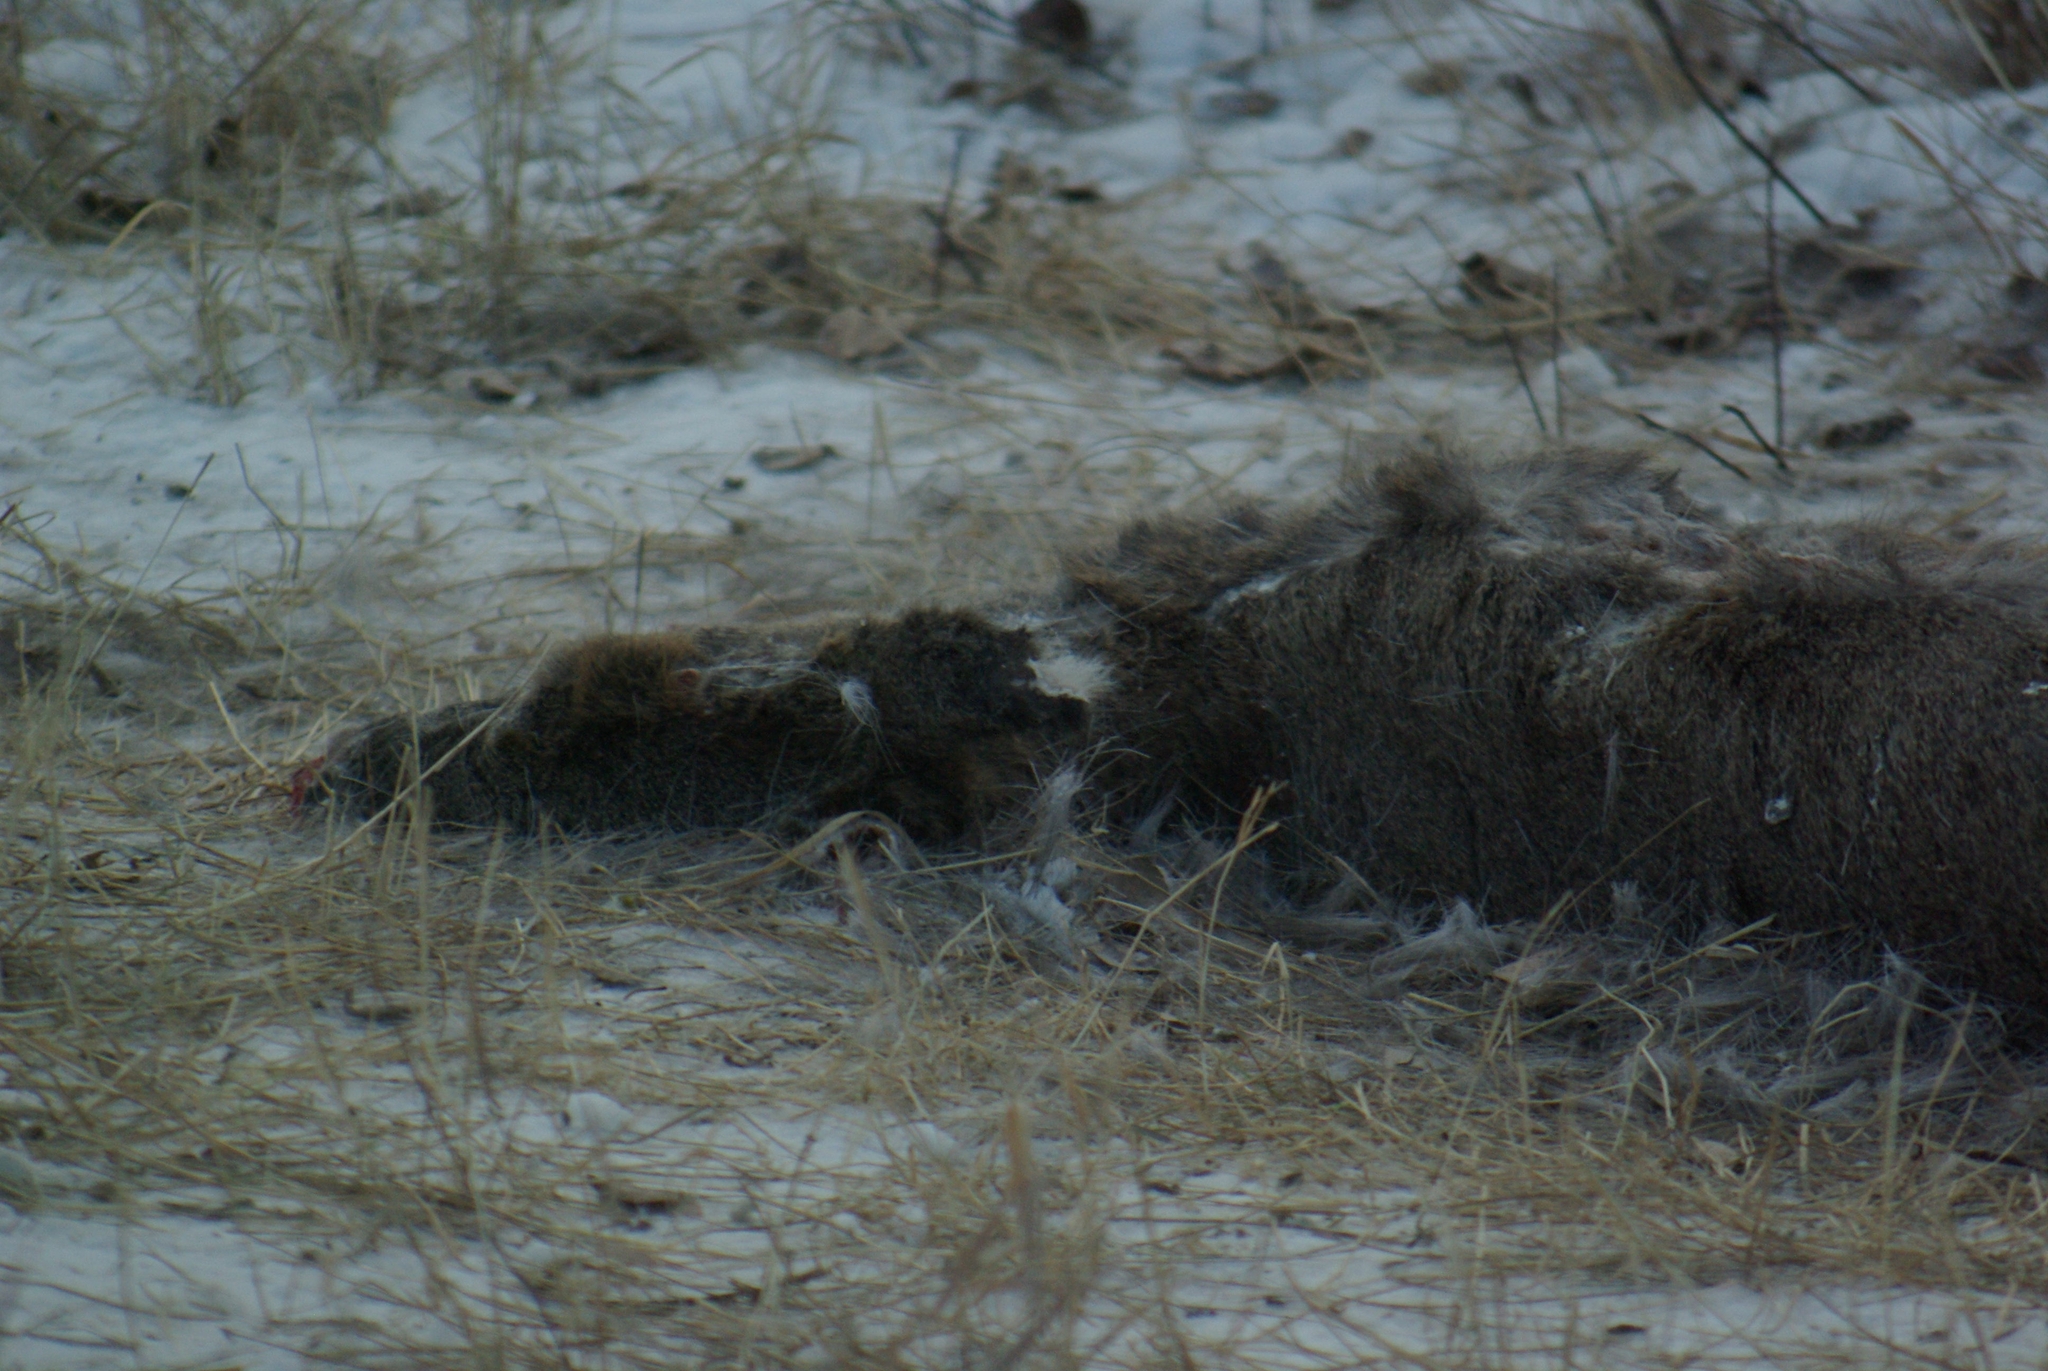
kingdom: Animalia
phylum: Chordata
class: Mammalia
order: Artiodactyla
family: Cervidae
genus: Odocoileus
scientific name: Odocoileus virginianus
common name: White-tailed deer
